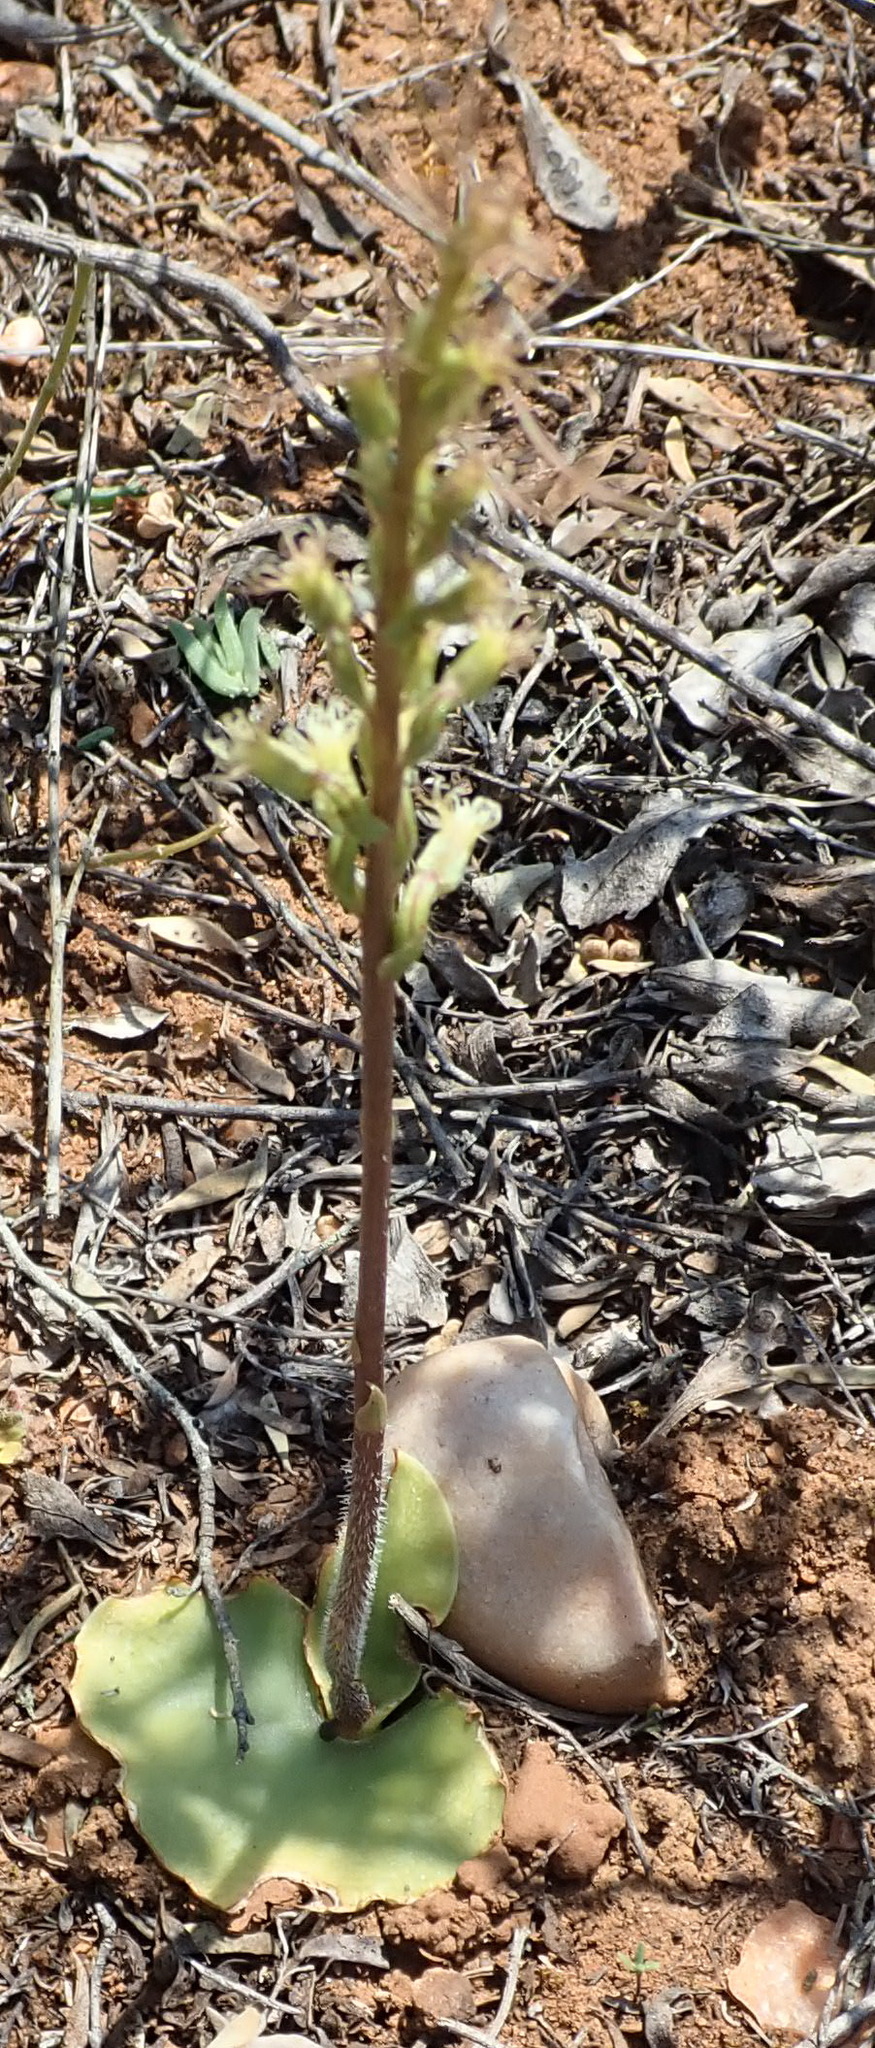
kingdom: Plantae
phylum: Tracheophyta
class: Liliopsida
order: Asparagales
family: Orchidaceae
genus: Holothrix
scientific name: Holothrix burchellii
